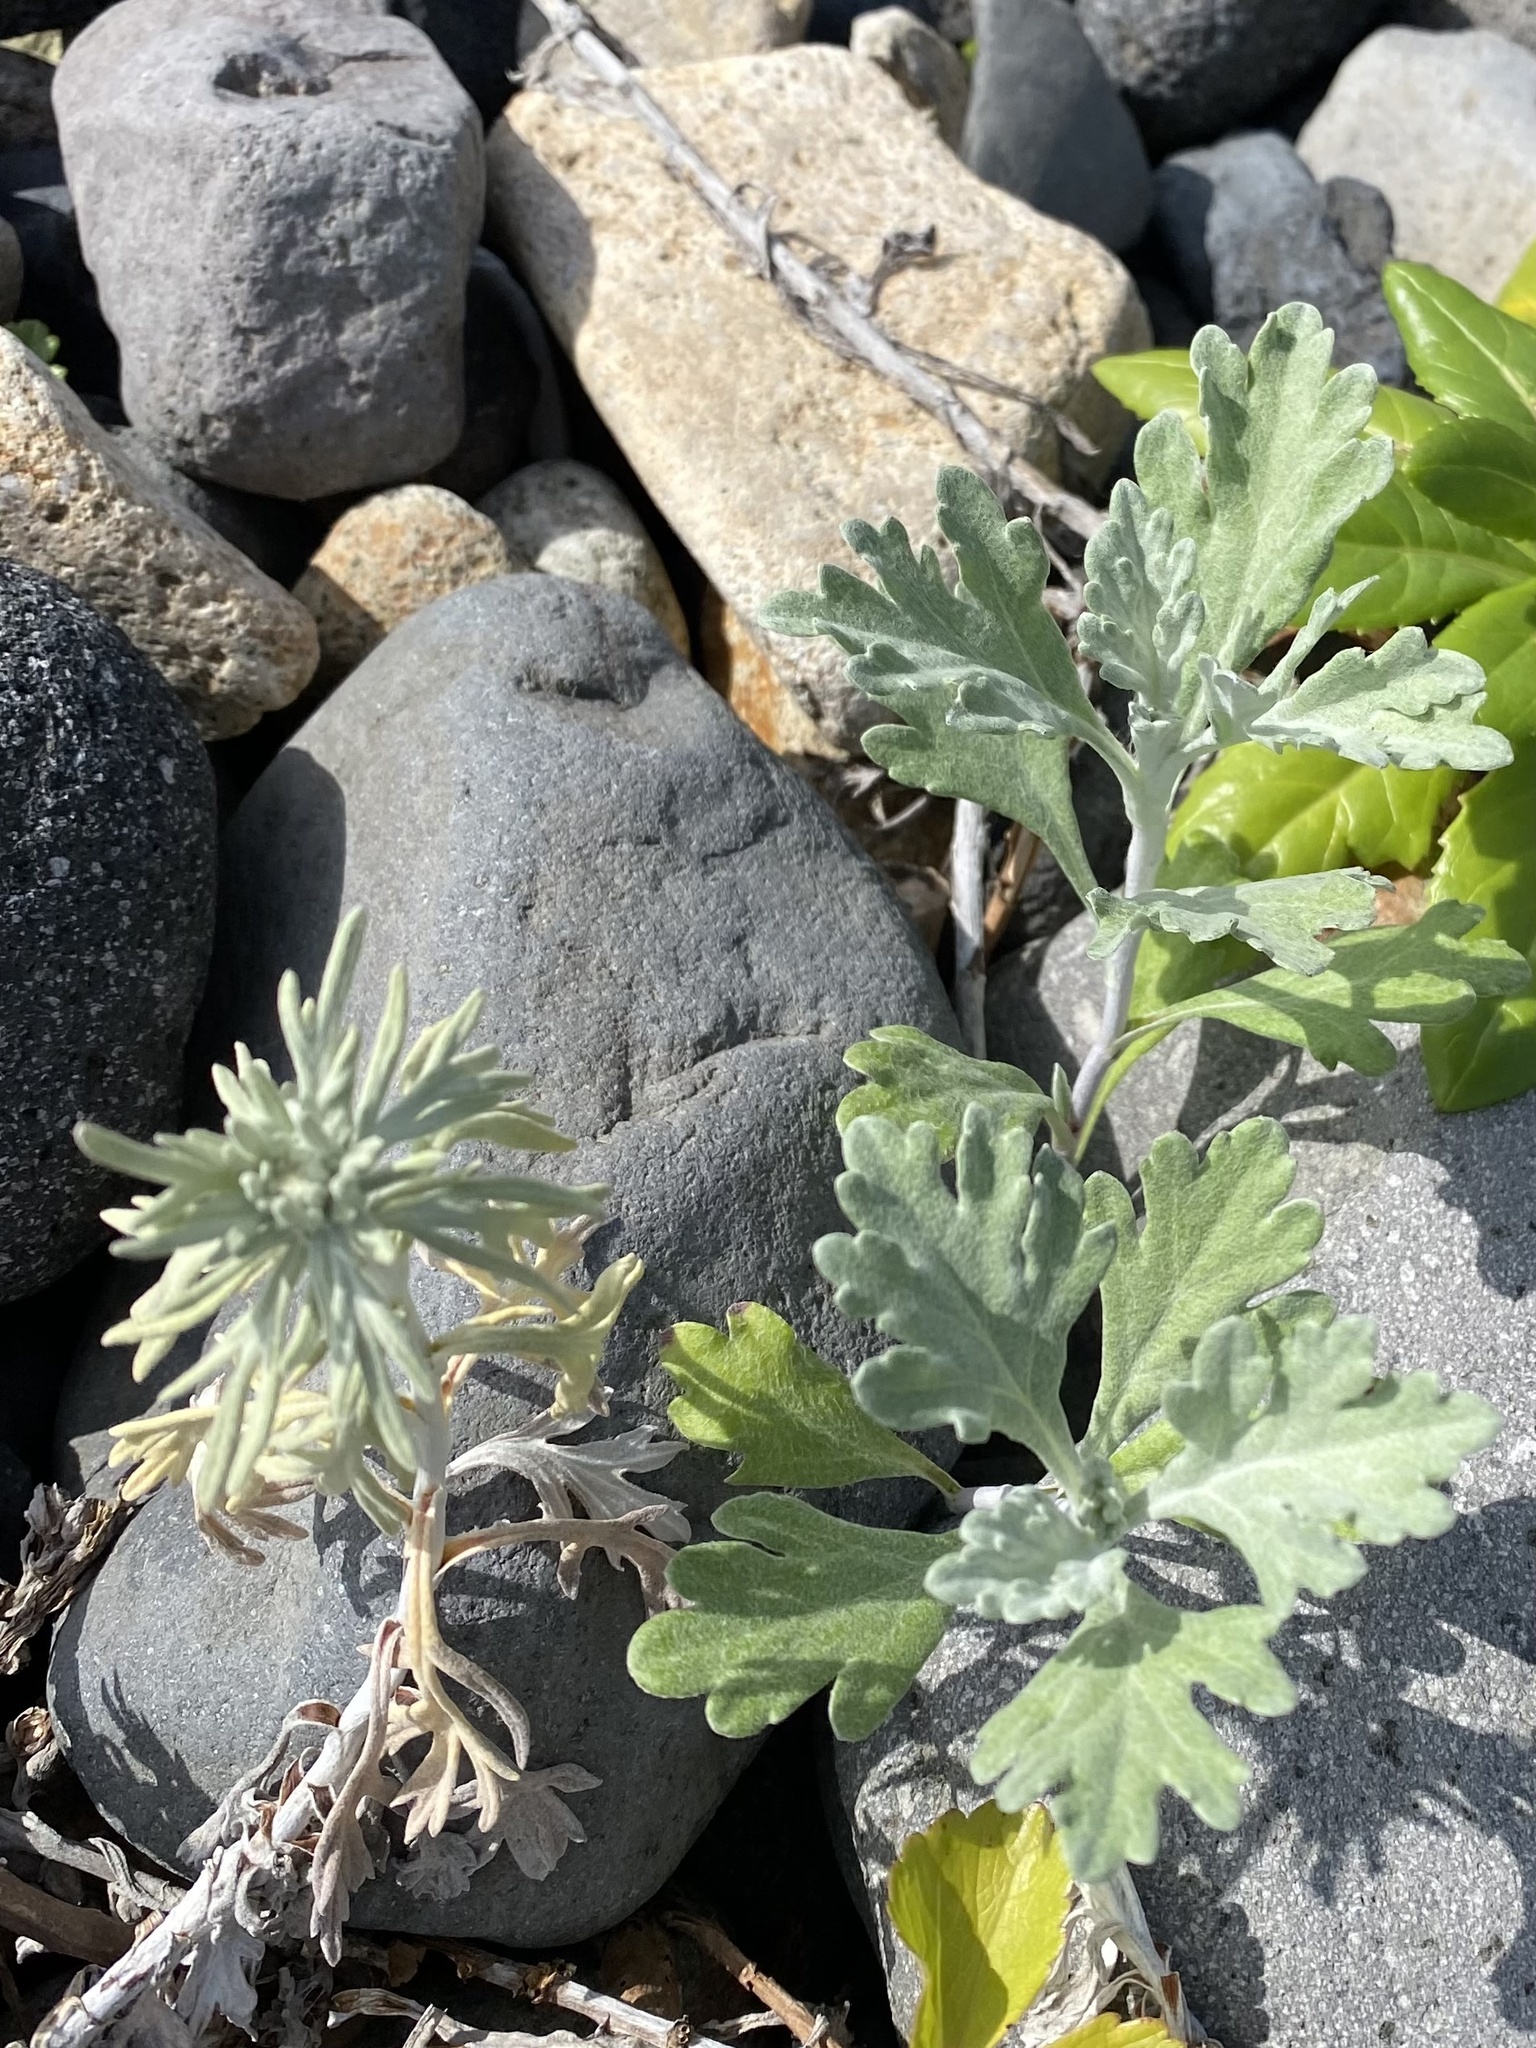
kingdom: Plantae
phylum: Tracheophyta
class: Magnoliopsida
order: Asterales
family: Asteraceae
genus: Artemisia
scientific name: Artemisia stelleriana
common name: Beach wormwood
